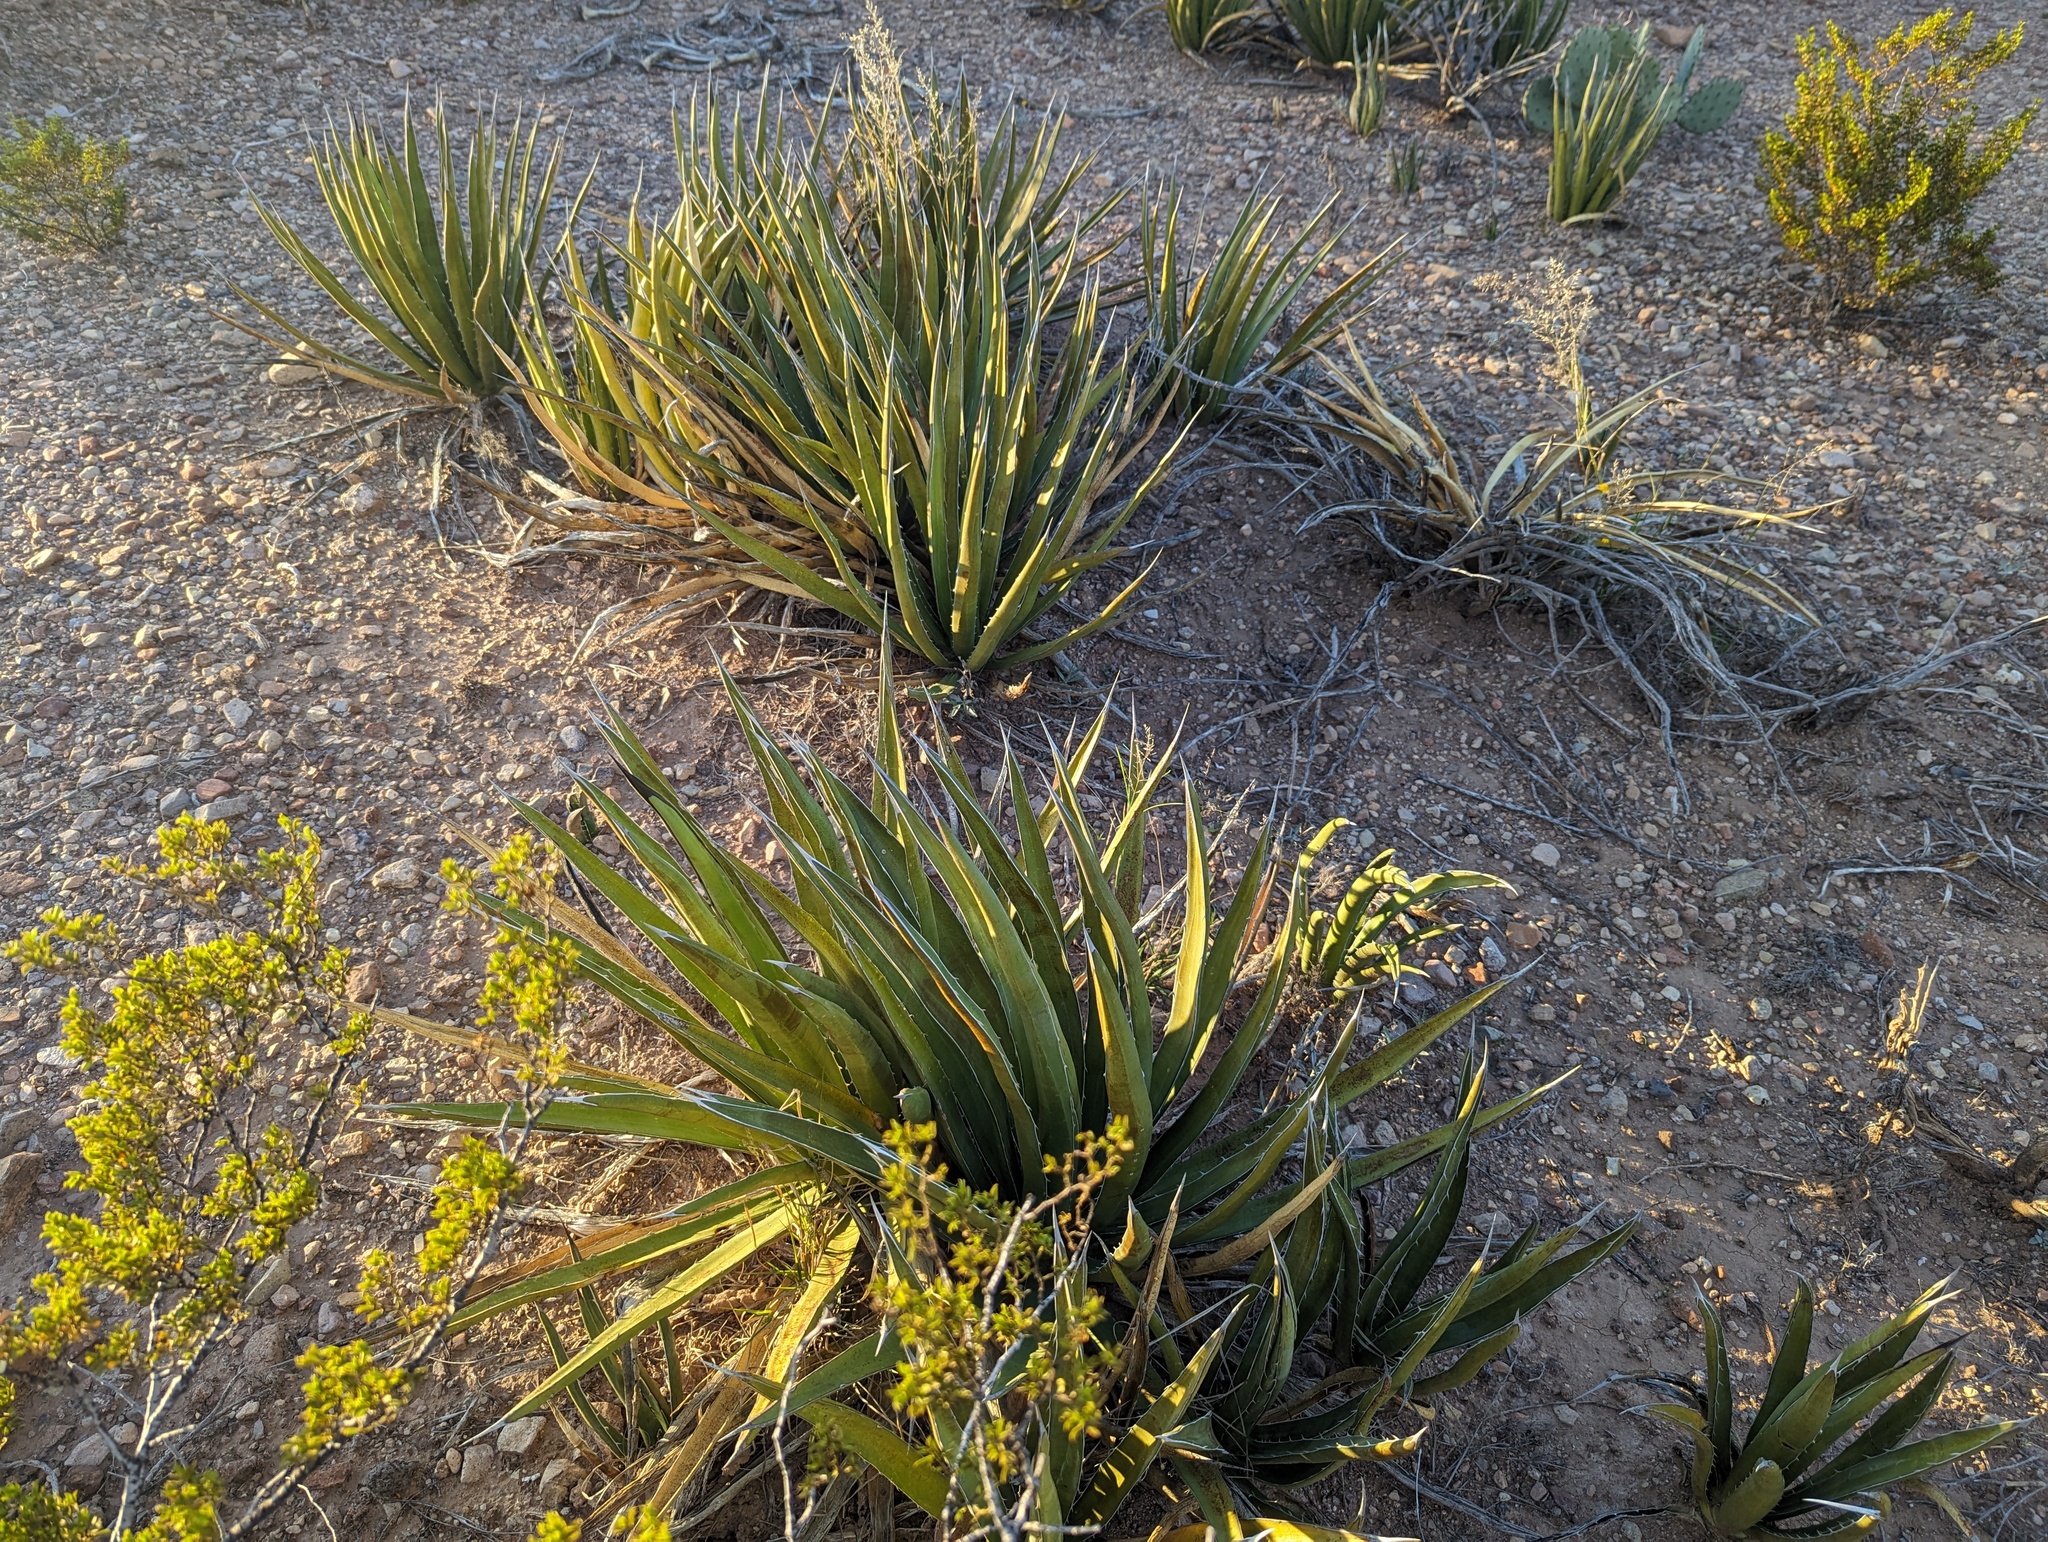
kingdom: Plantae
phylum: Tracheophyta
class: Liliopsida
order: Asparagales
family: Asparagaceae
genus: Agave
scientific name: Agave lechuguilla
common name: Lecheguilla agave
